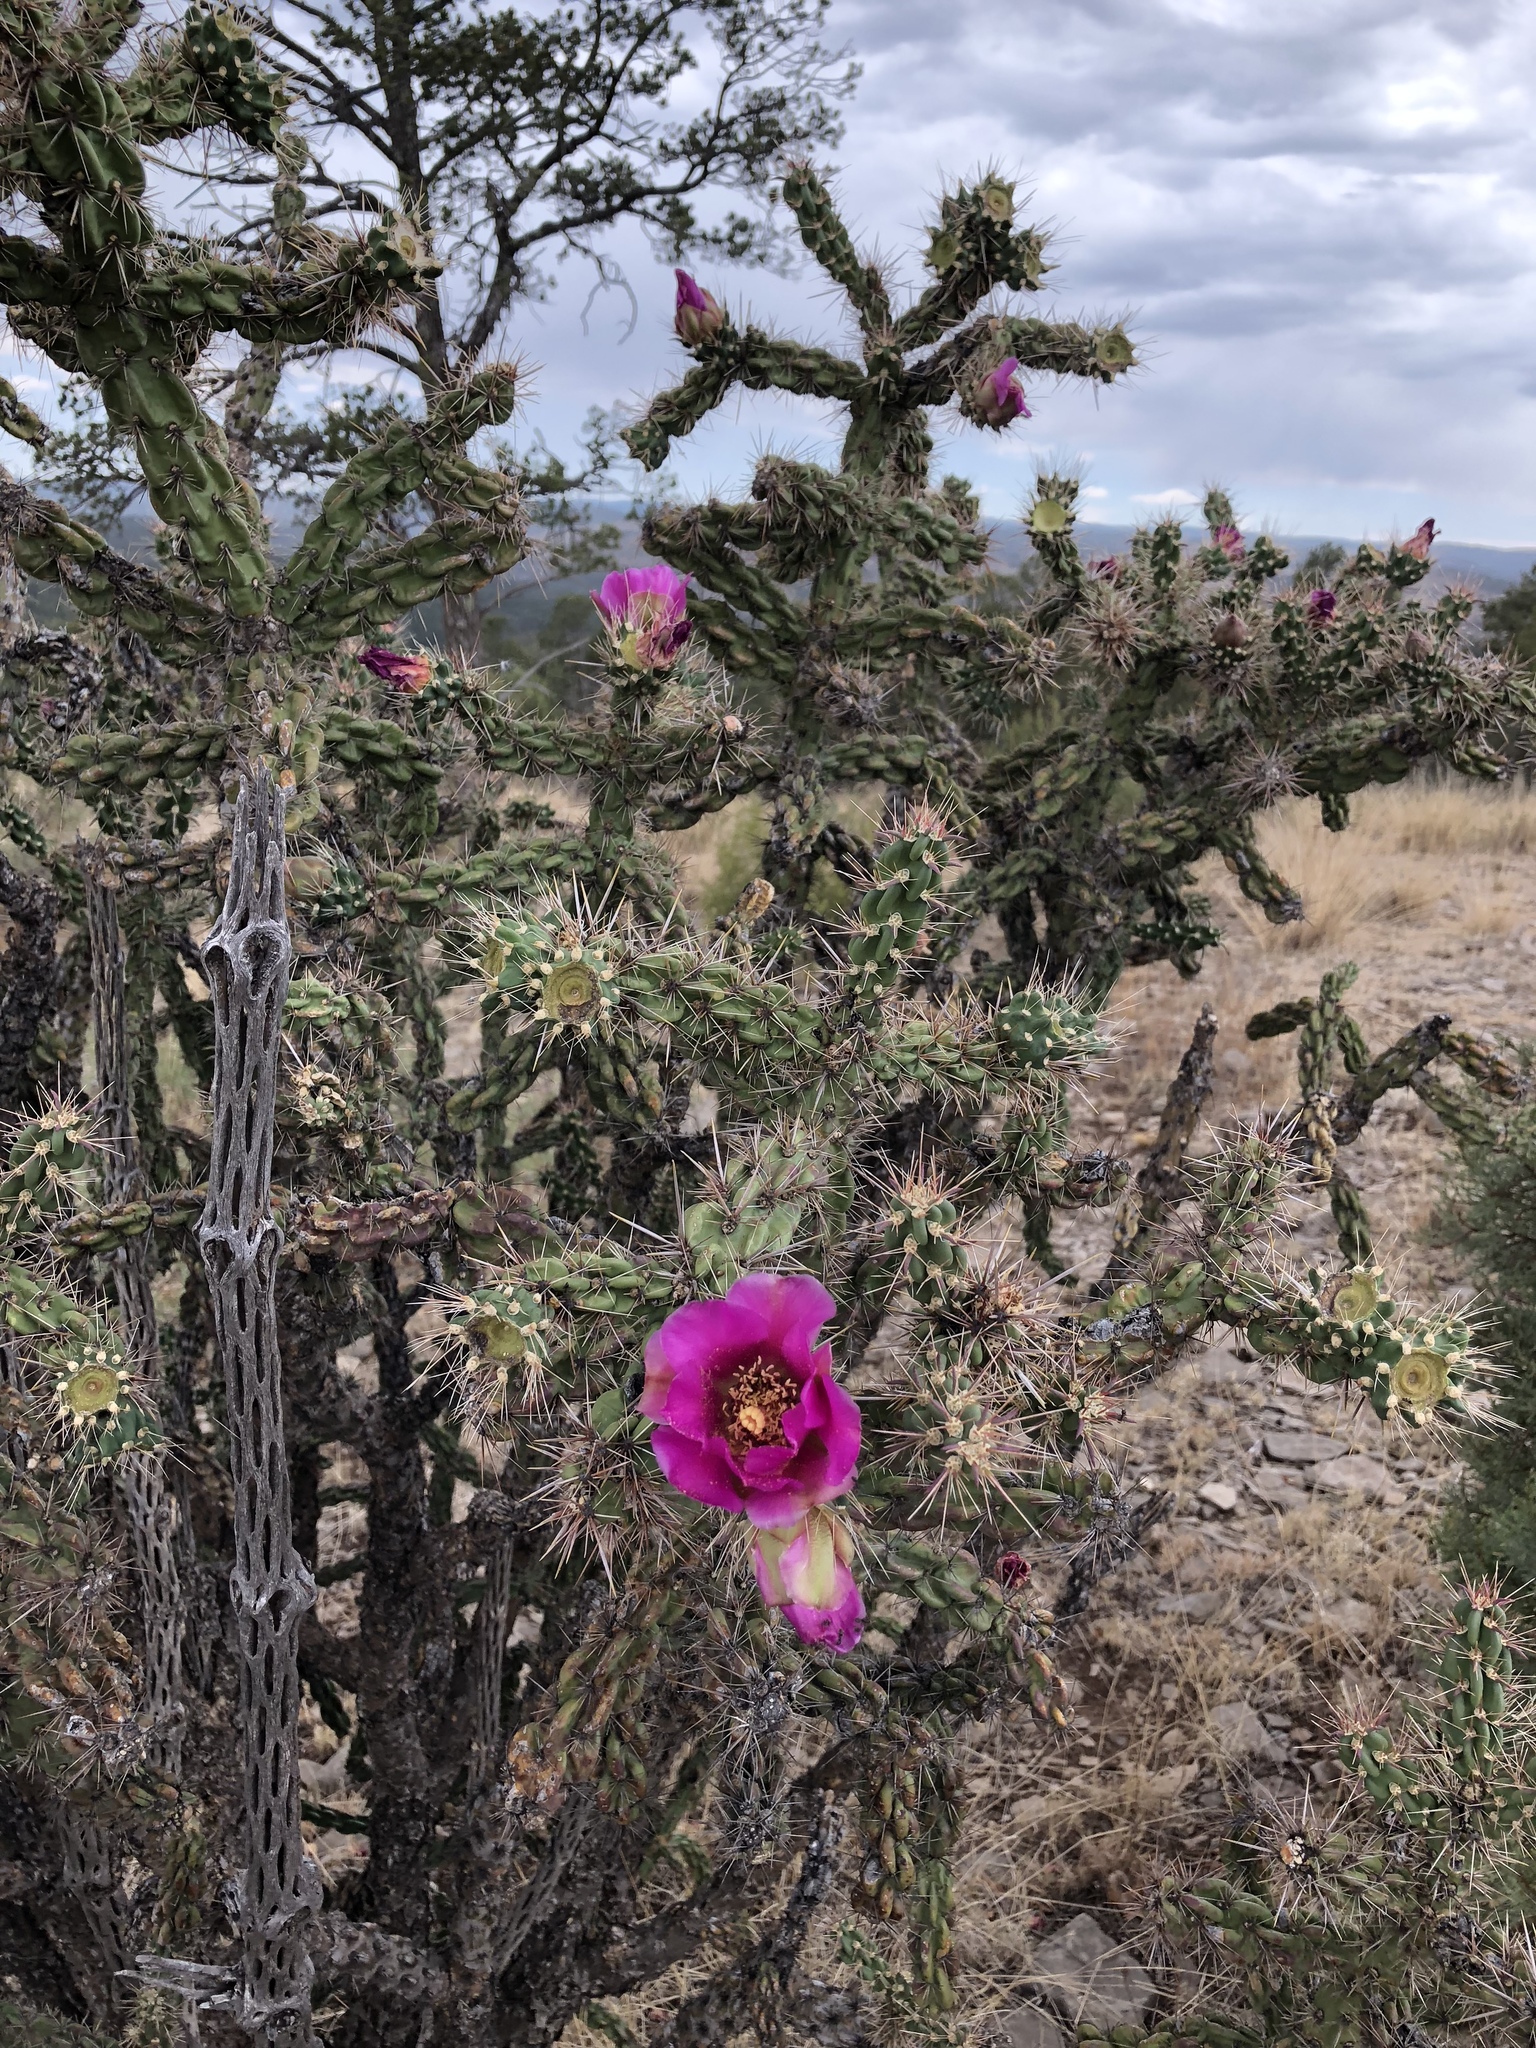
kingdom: Plantae
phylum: Tracheophyta
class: Magnoliopsida
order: Caryophyllales
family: Cactaceae
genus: Cylindropuntia
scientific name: Cylindropuntia imbricata
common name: Candelabrum cactus
